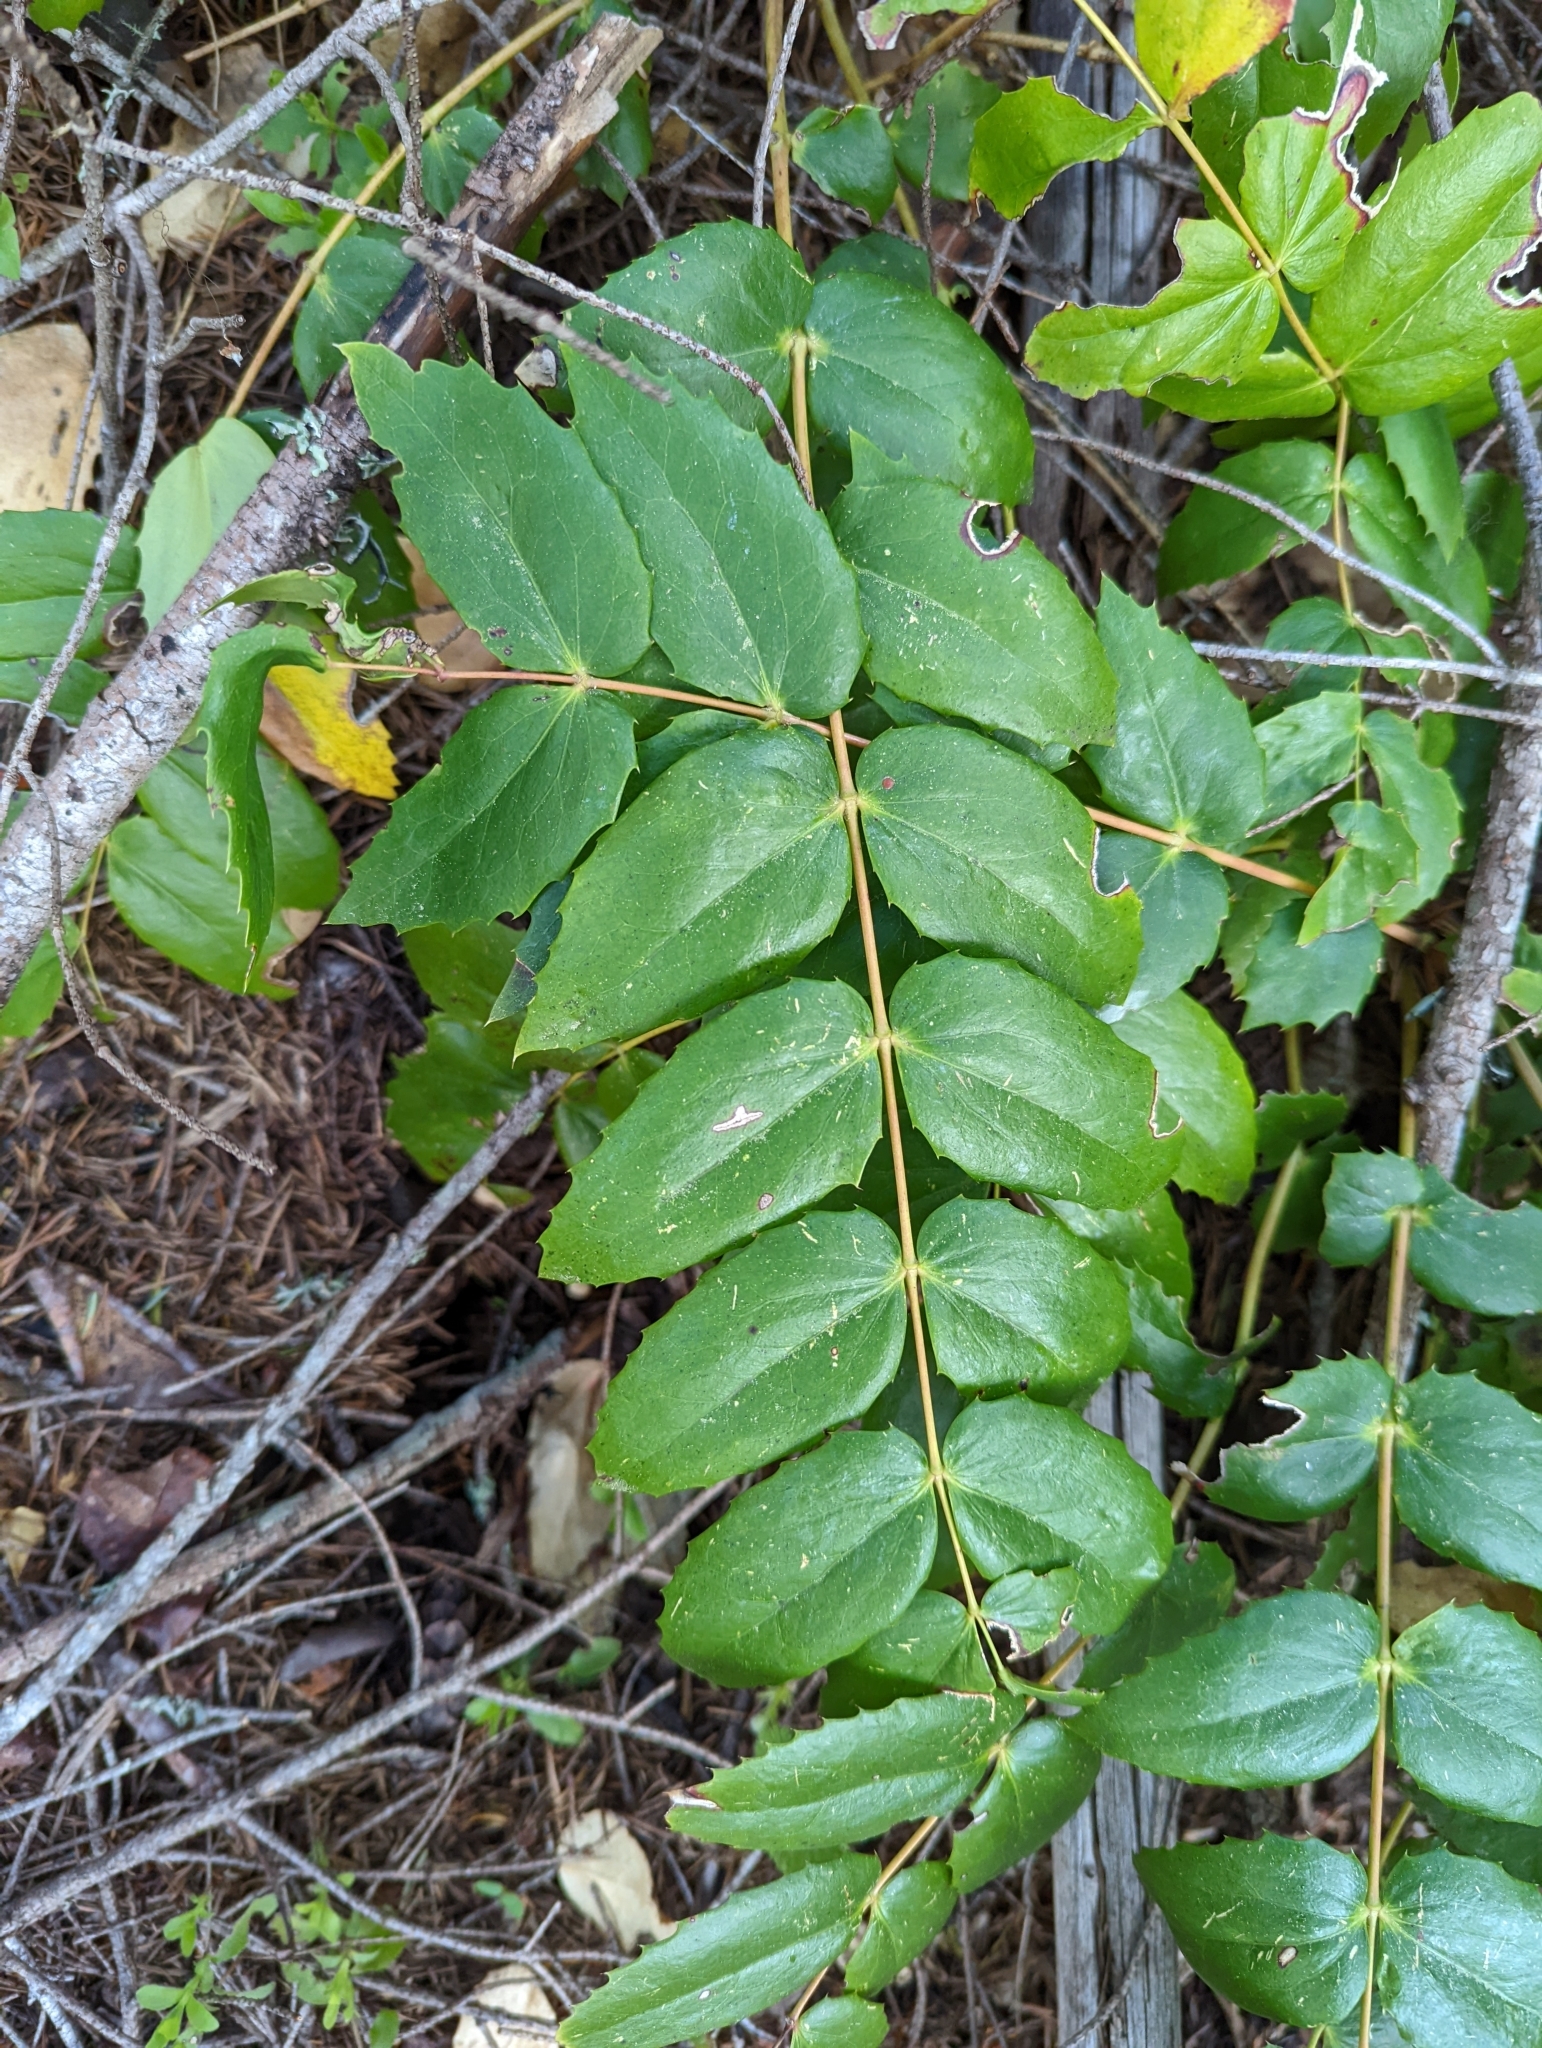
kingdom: Plantae
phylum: Tracheophyta
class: Magnoliopsida
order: Ranunculales
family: Berberidaceae
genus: Mahonia
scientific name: Mahonia nervosa
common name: Cascade oregon-grape
